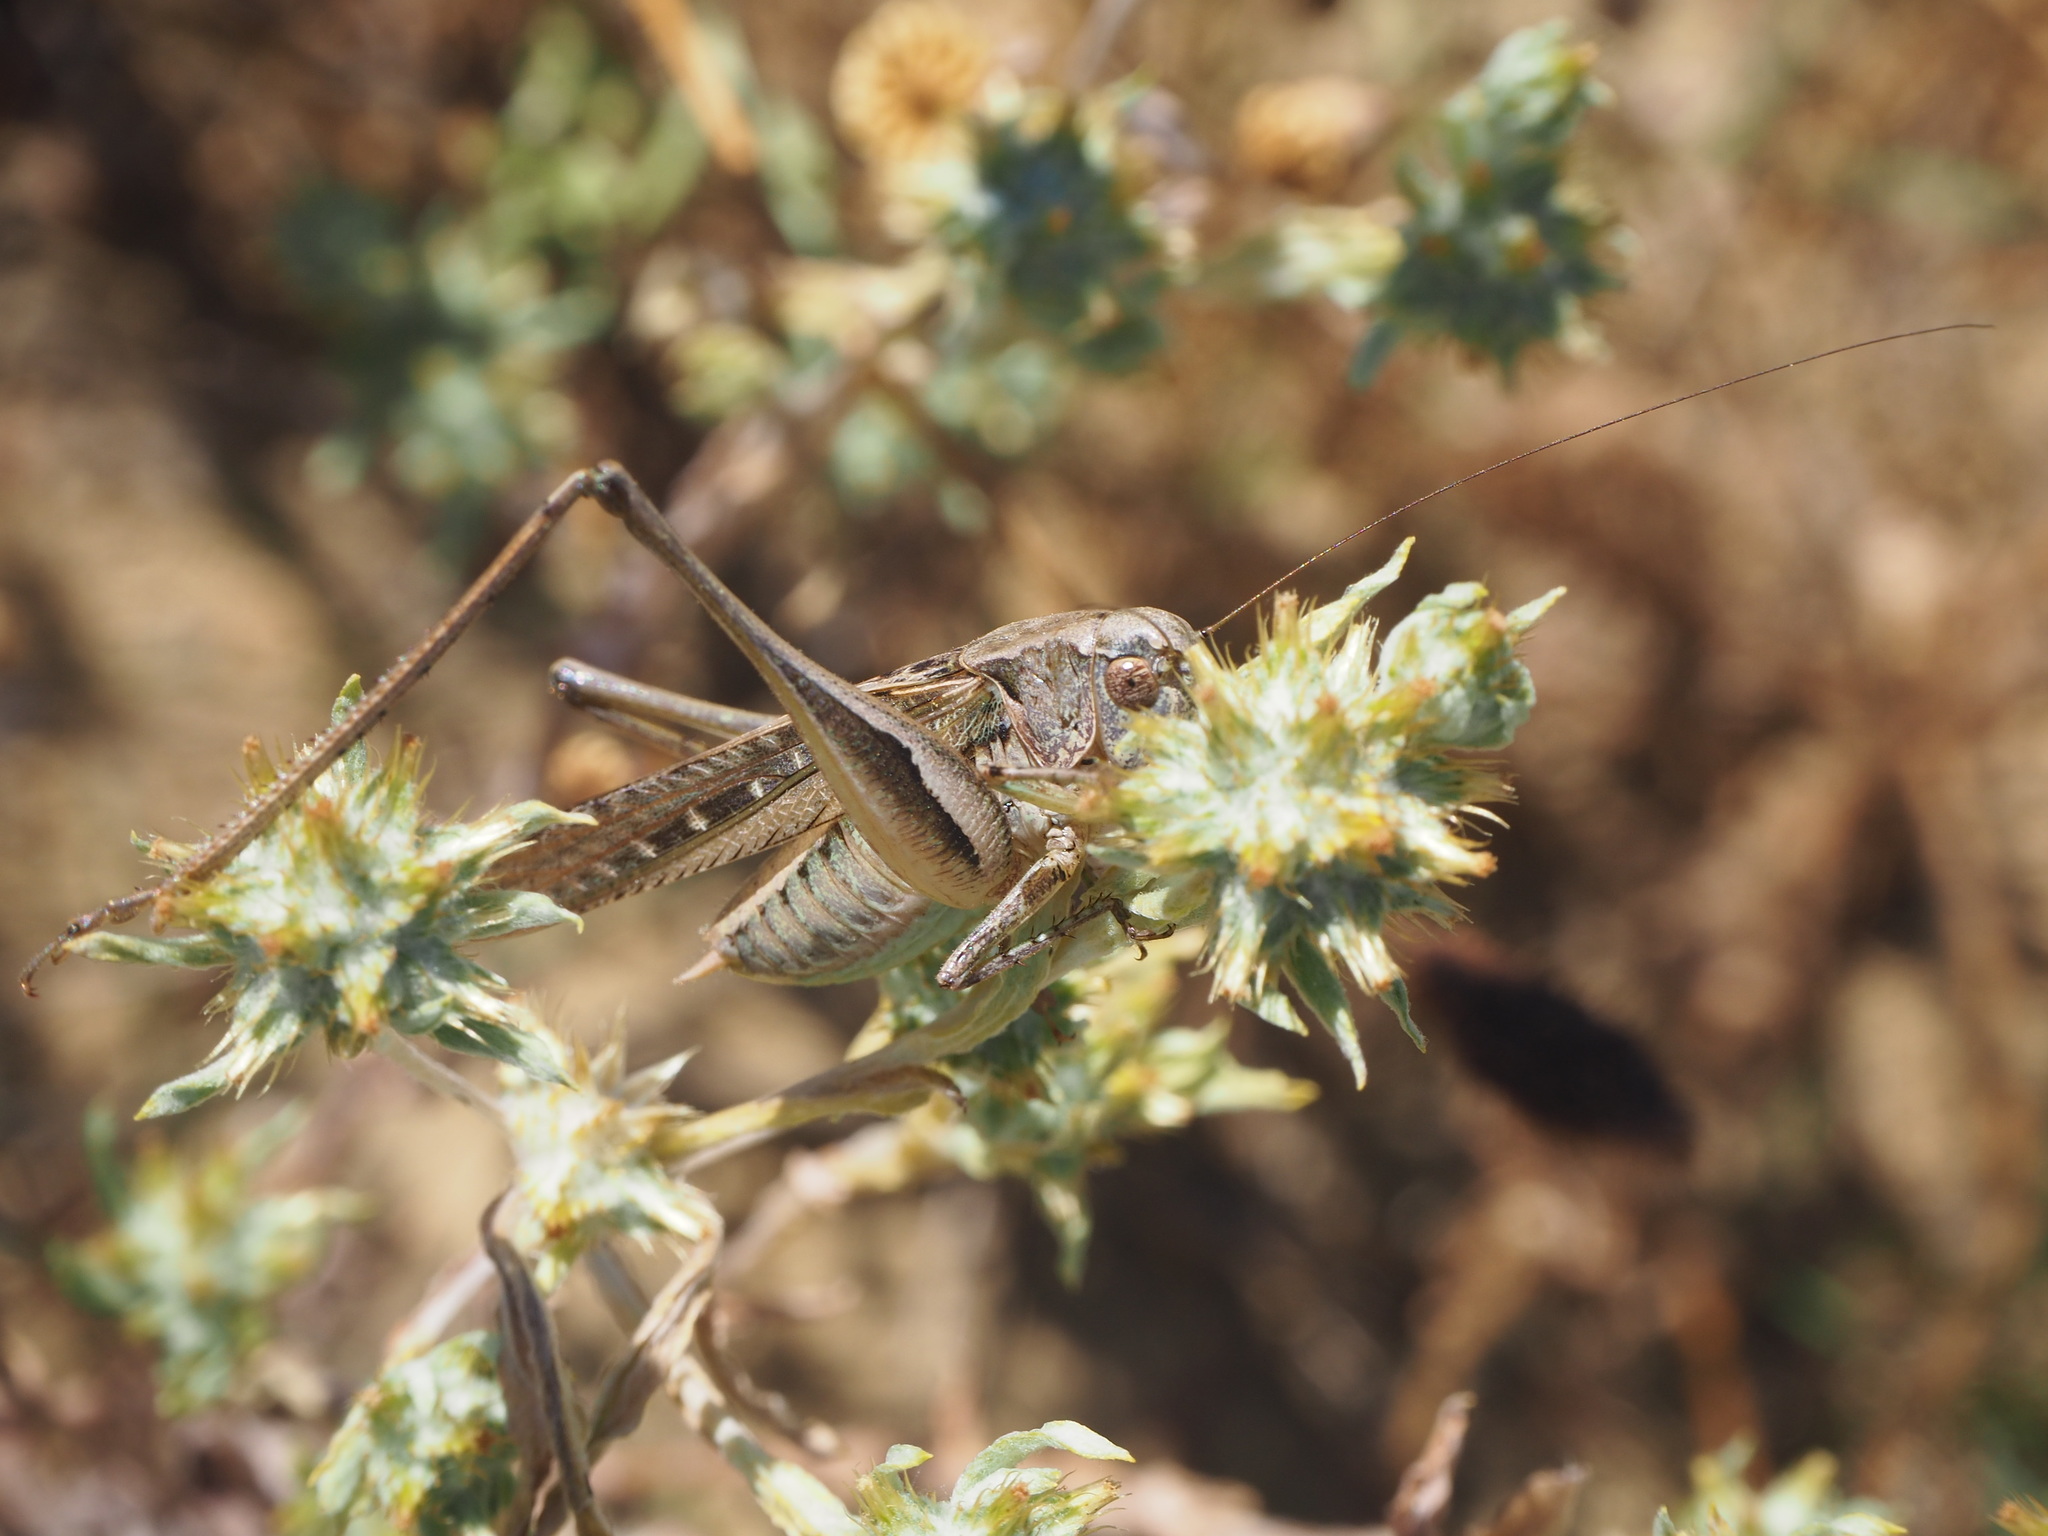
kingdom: Animalia
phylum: Arthropoda
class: Insecta
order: Orthoptera
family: Tettigoniidae
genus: Platycleis
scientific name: Platycleis grisea
